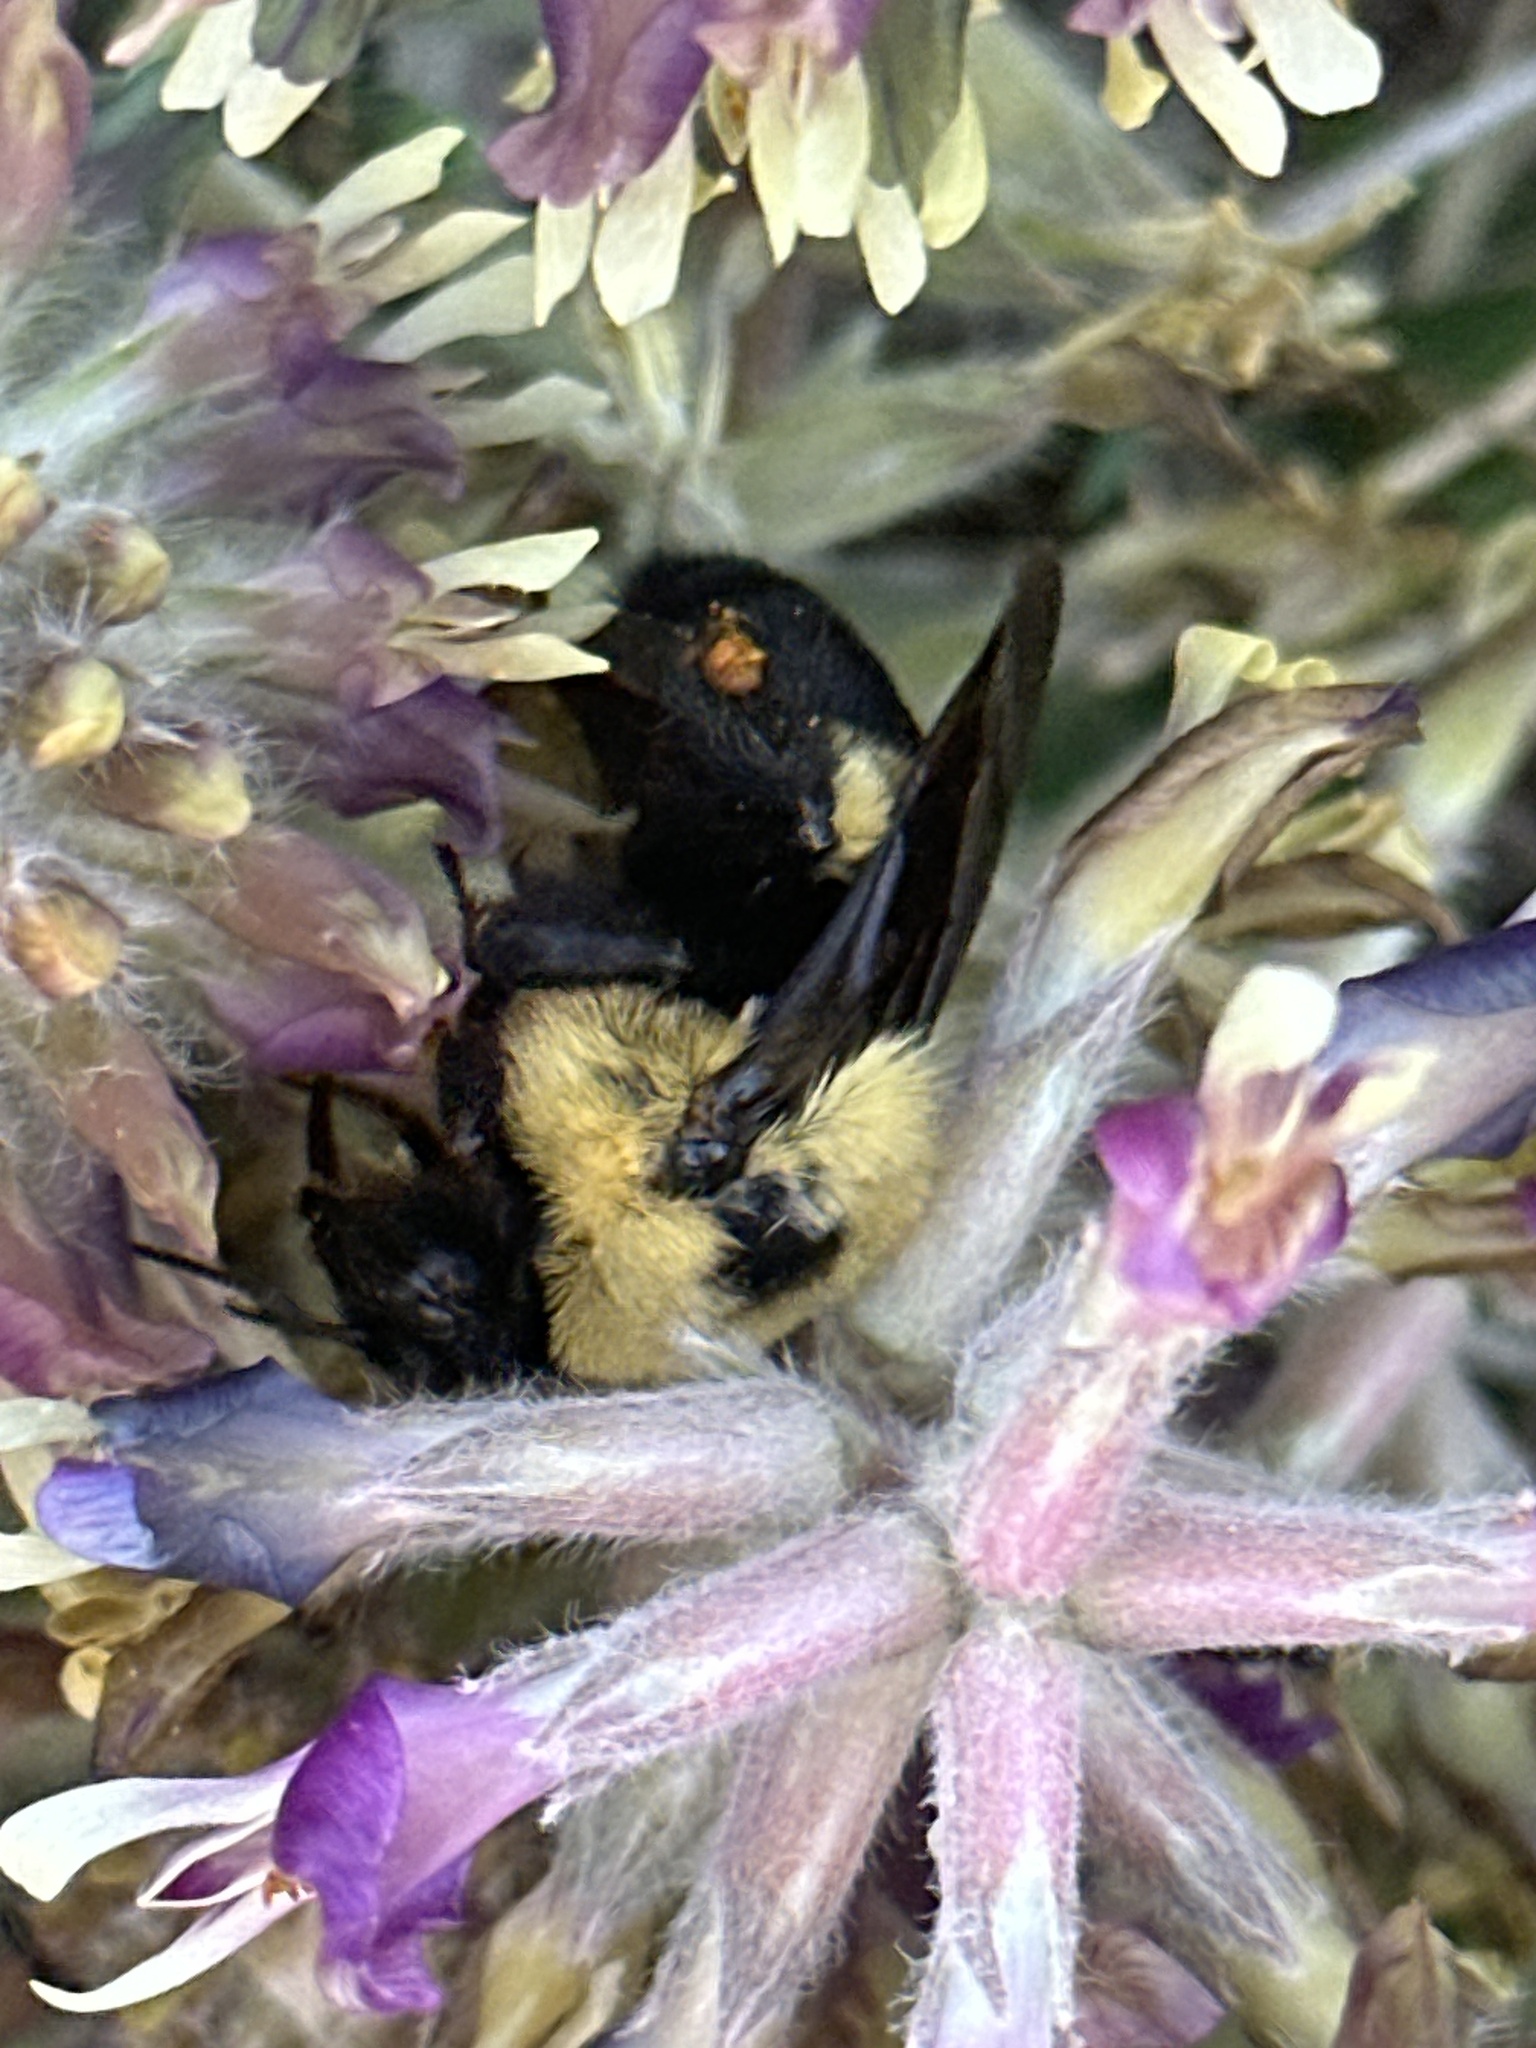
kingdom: Animalia
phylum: Arthropoda
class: Insecta
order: Hymenoptera
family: Apidae
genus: Bombus
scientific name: Bombus griseocollis
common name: Brown-belted bumble bee
